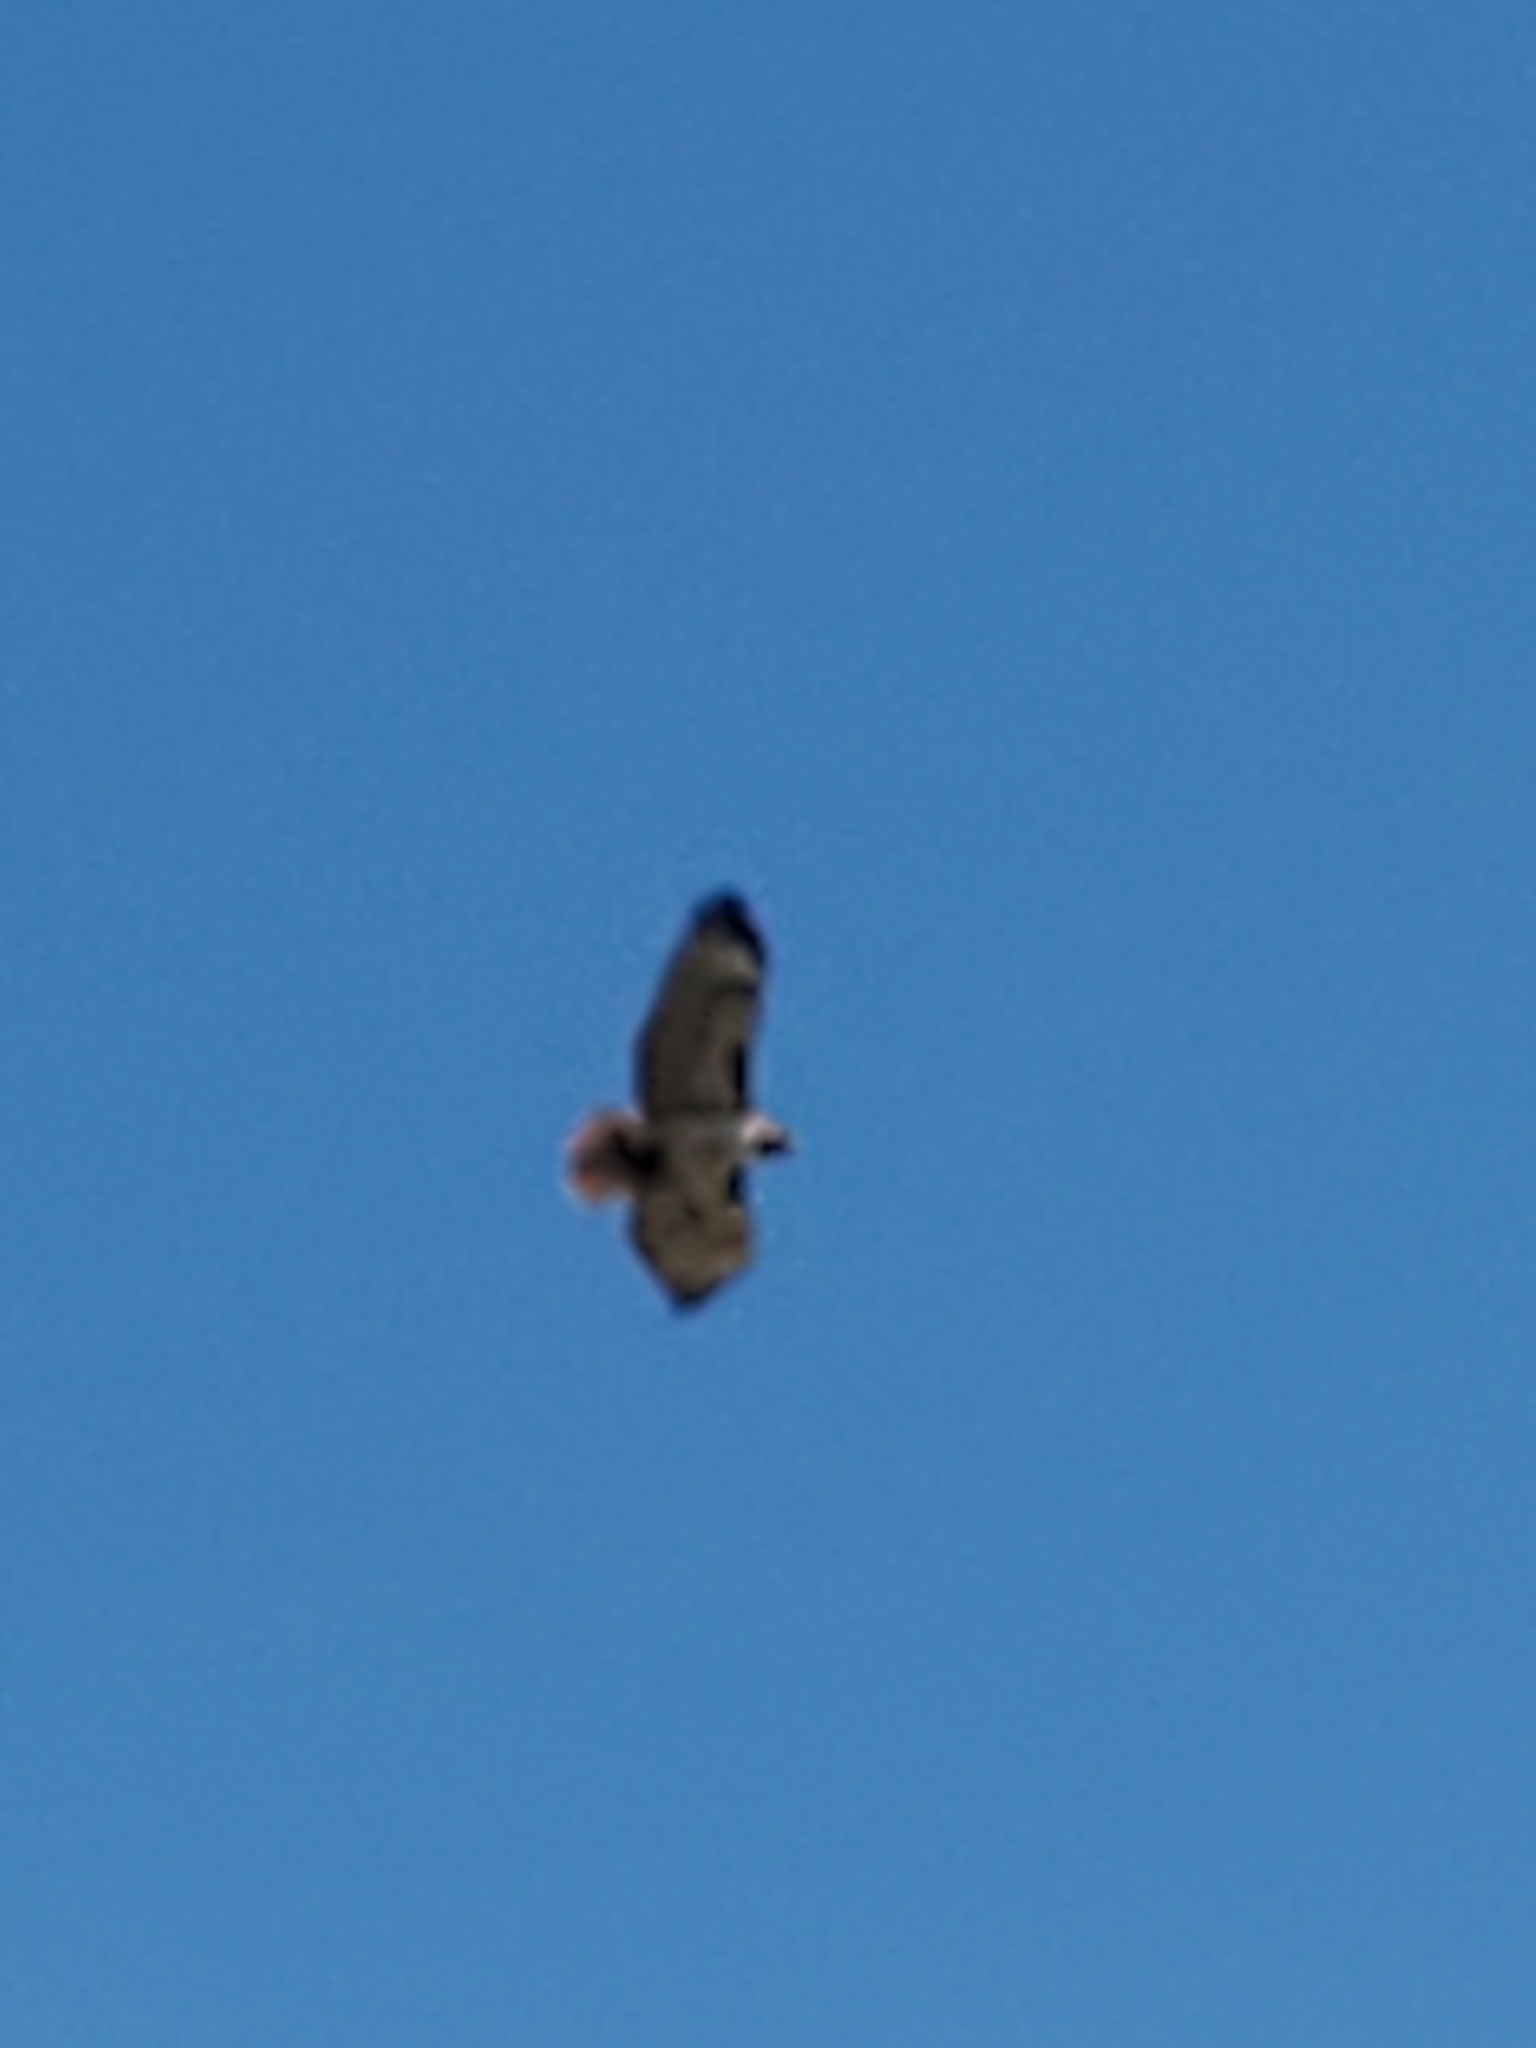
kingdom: Animalia
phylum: Chordata
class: Aves
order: Accipitriformes
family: Accipitridae
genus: Buteo
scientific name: Buteo jamaicensis
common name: Red-tailed hawk
